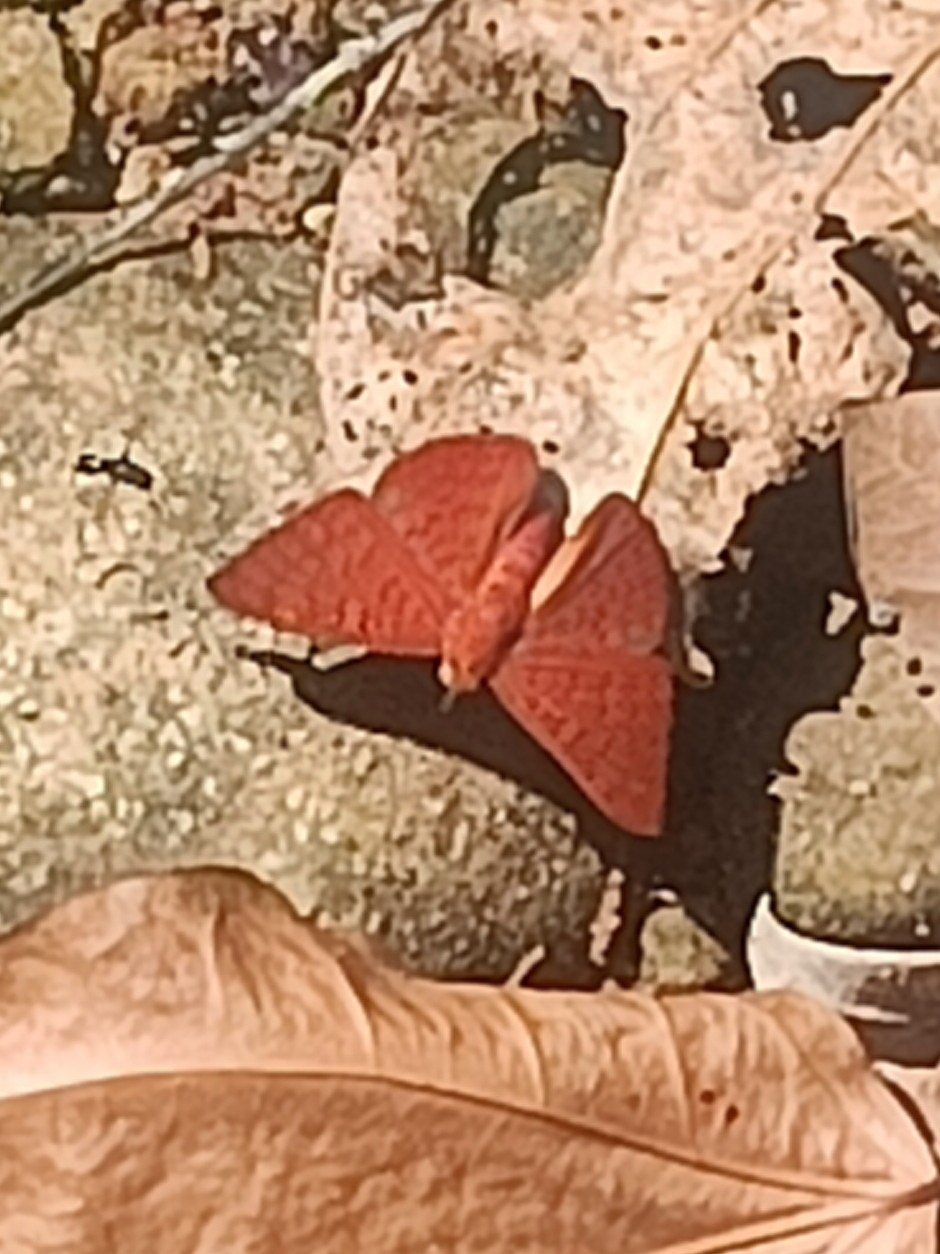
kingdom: Animalia
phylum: Arthropoda
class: Insecta
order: Lepidoptera
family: Lycaenidae
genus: Emesis
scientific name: Emesis mandana
